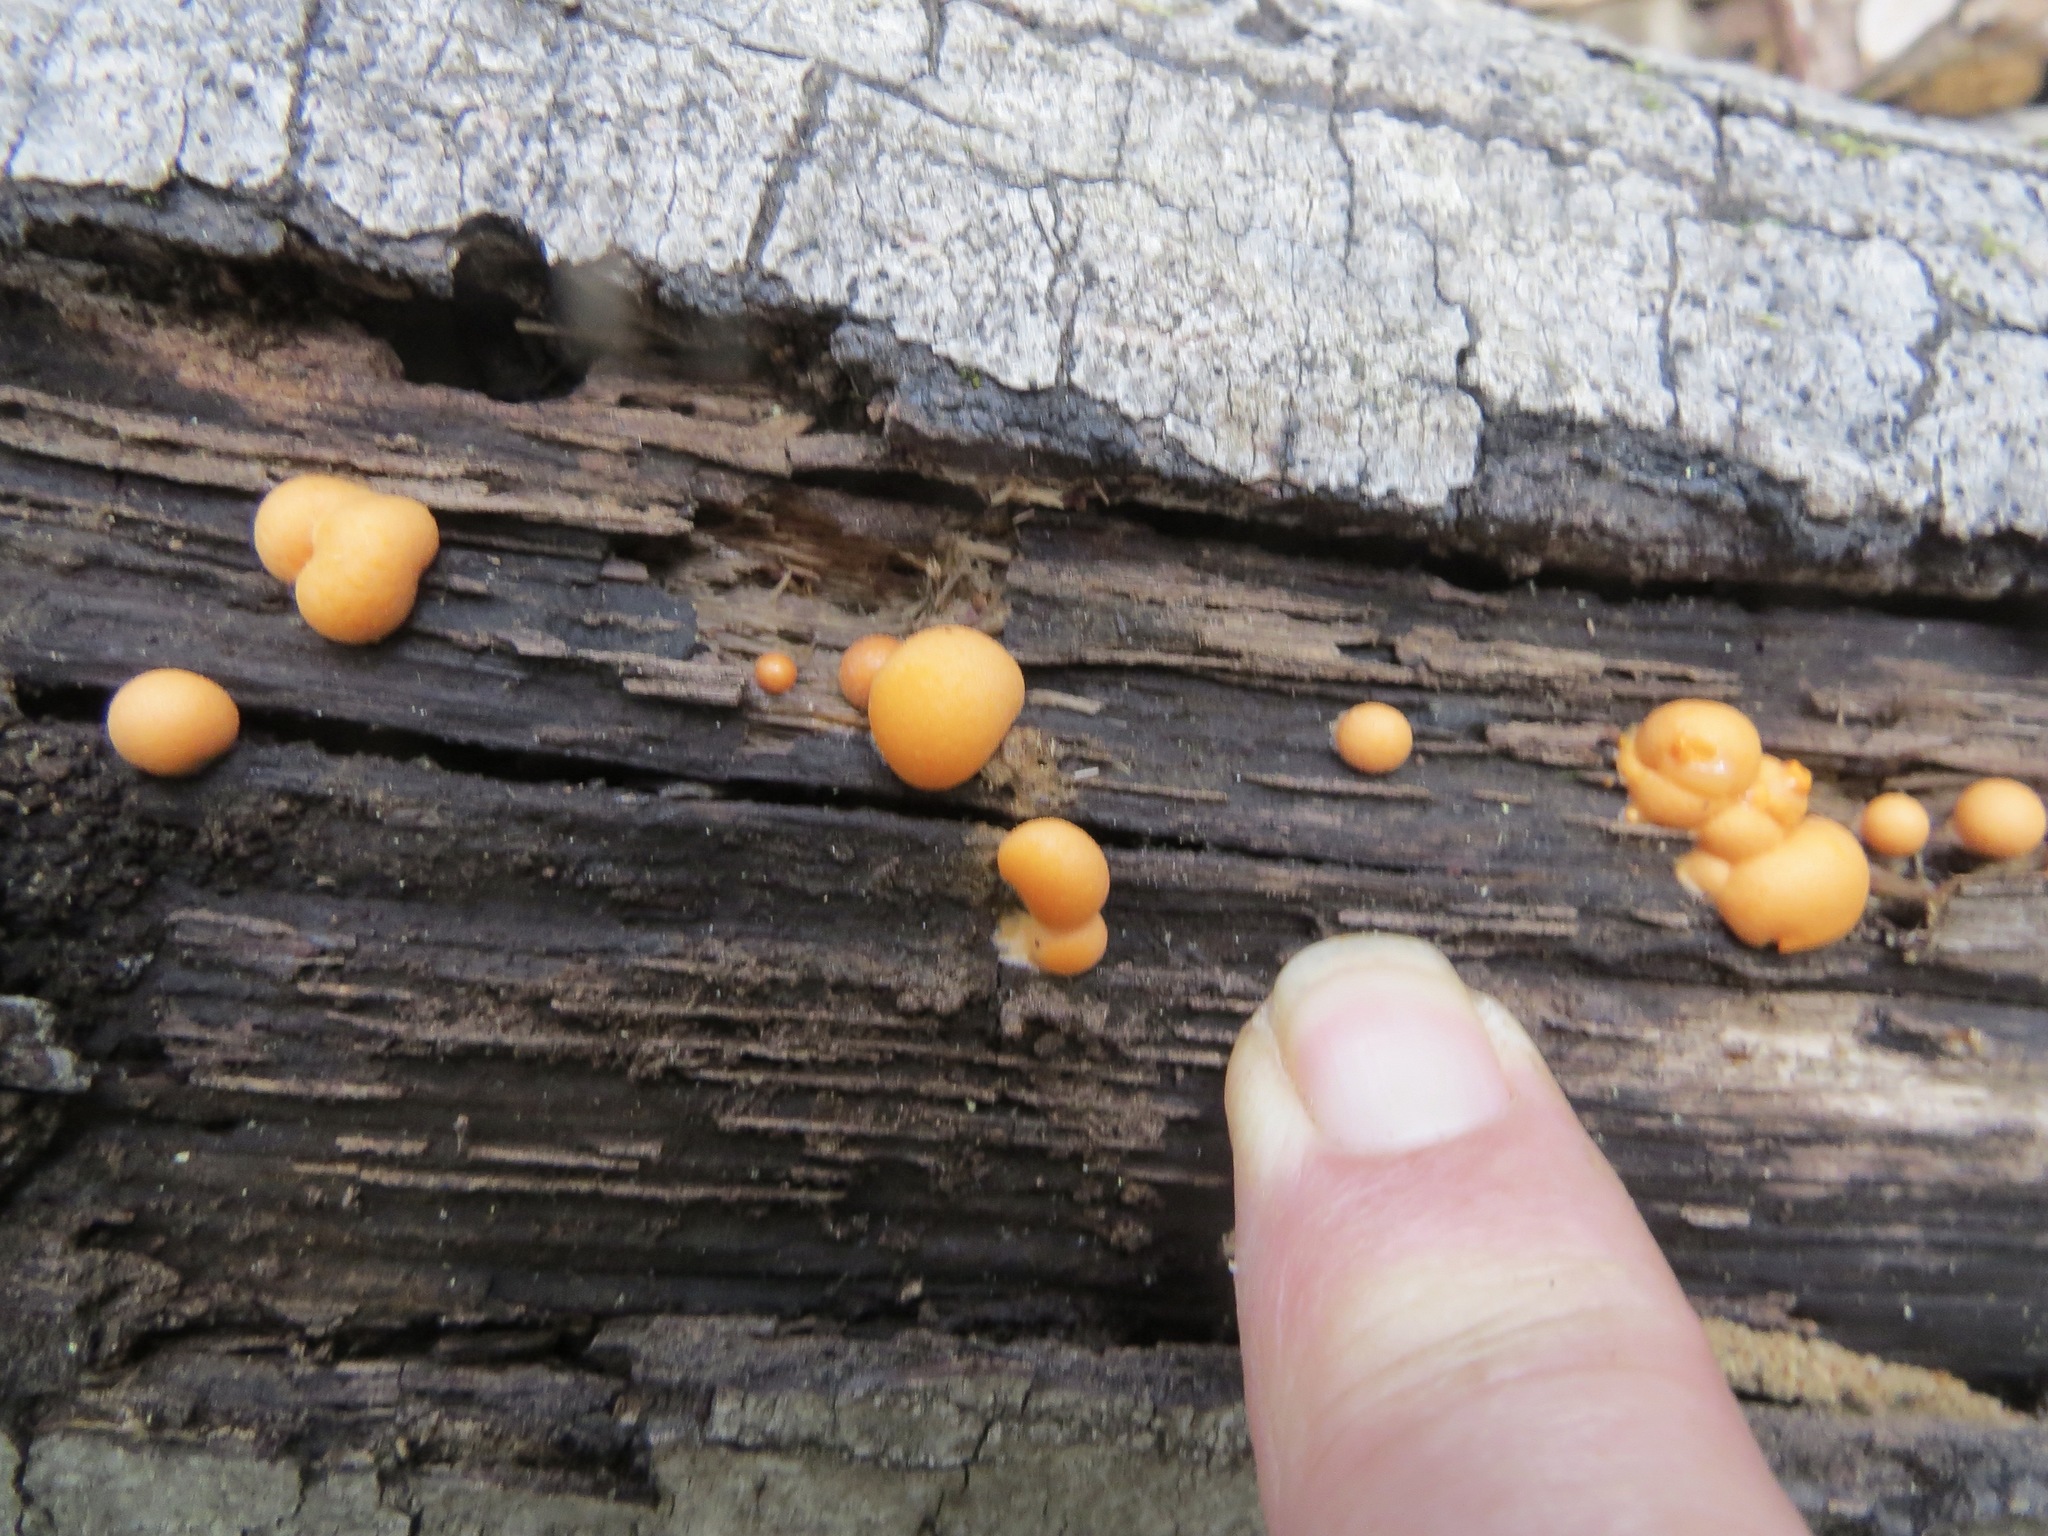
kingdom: Protozoa
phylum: Mycetozoa
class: Myxomycetes
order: Cribrariales
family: Tubiferaceae
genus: Lycogala
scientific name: Lycogala epidendrum
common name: Wolf's milk
